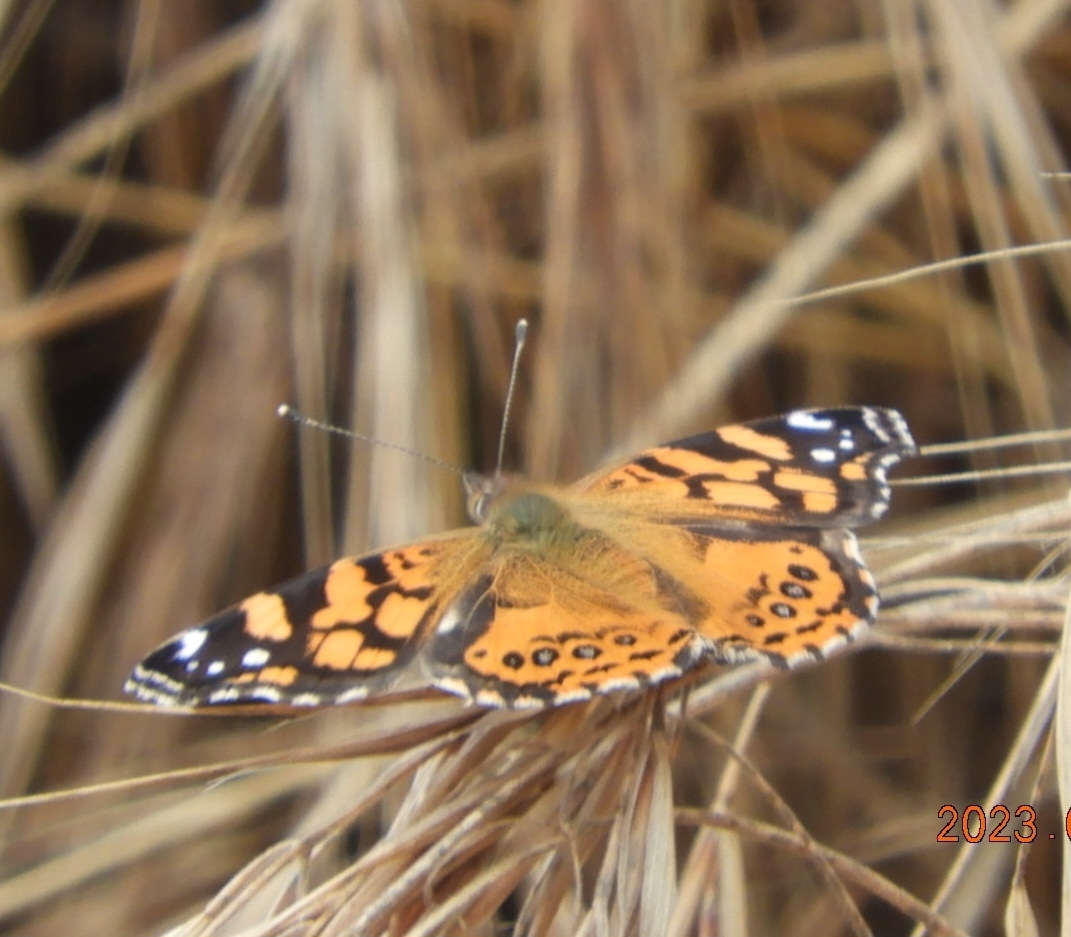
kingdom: Animalia
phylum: Arthropoda
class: Insecta
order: Lepidoptera
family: Nymphalidae
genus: Vanessa
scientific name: Vanessa annabella
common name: West coast lady
